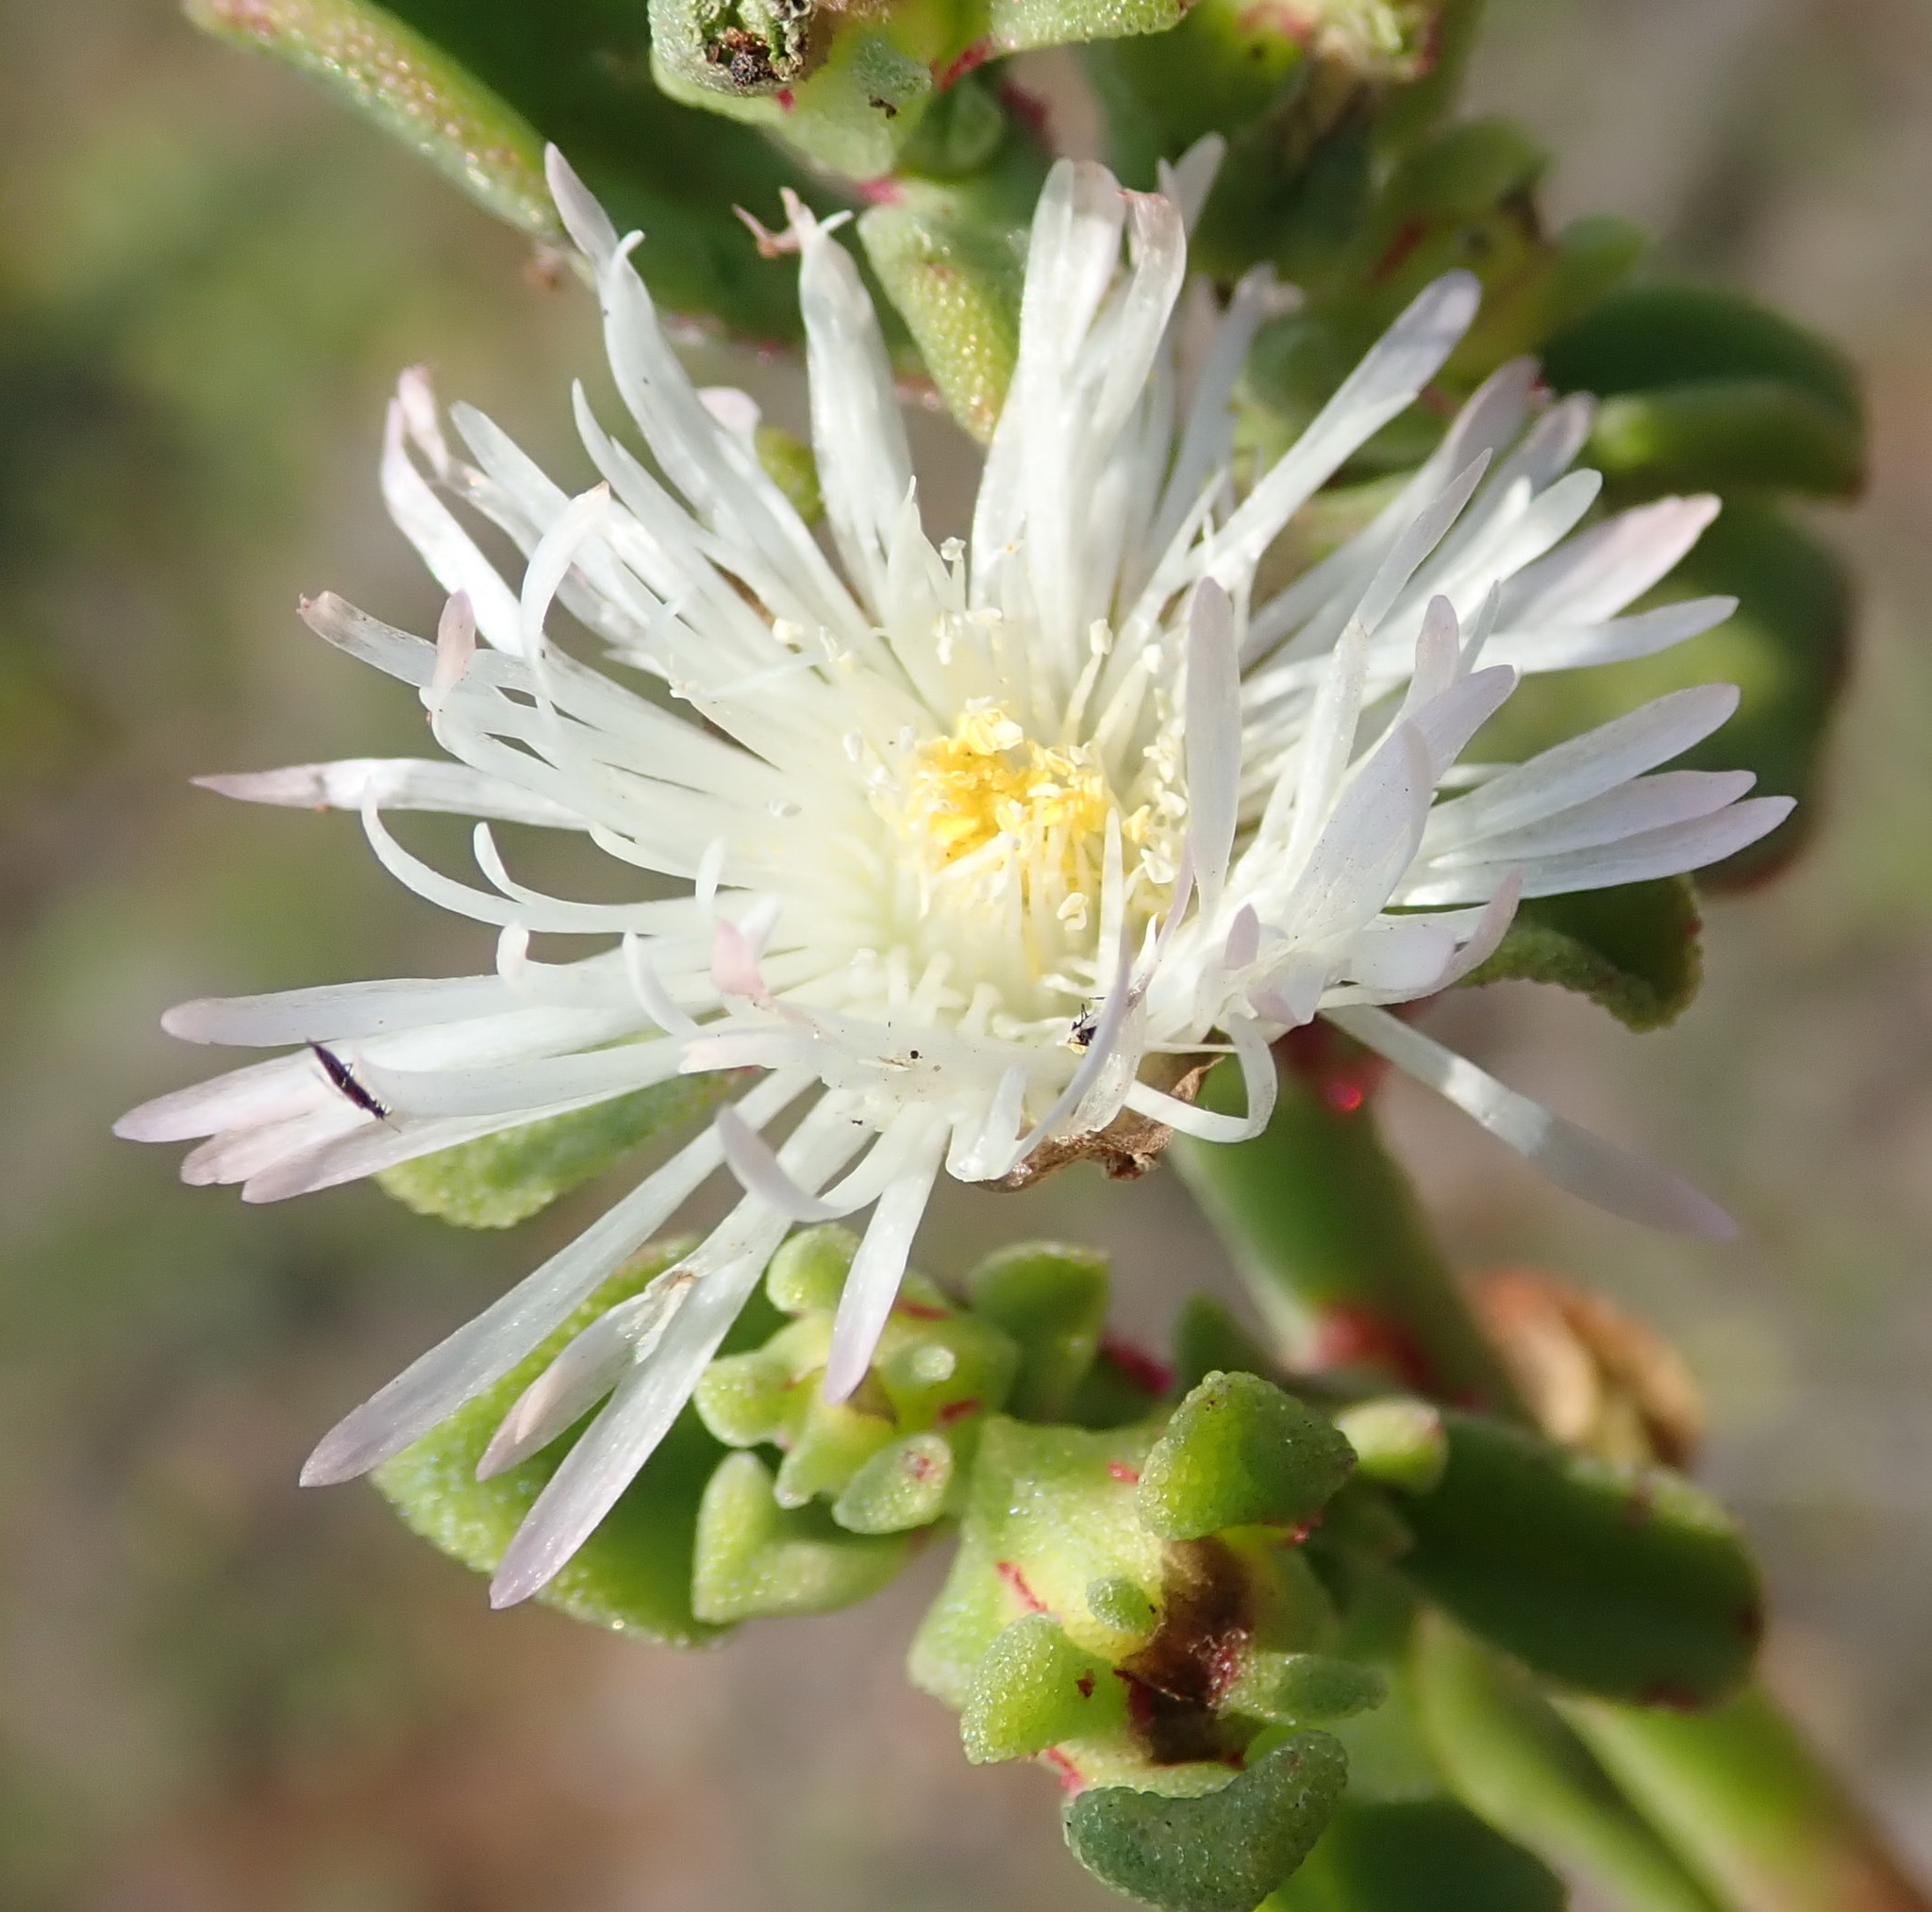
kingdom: Plantae
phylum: Tracheophyta
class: Magnoliopsida
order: Caryophyllales
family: Aizoaceae
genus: Mesembryanthemum
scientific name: Mesembryanthemum aitonis
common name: Angled iceplant
